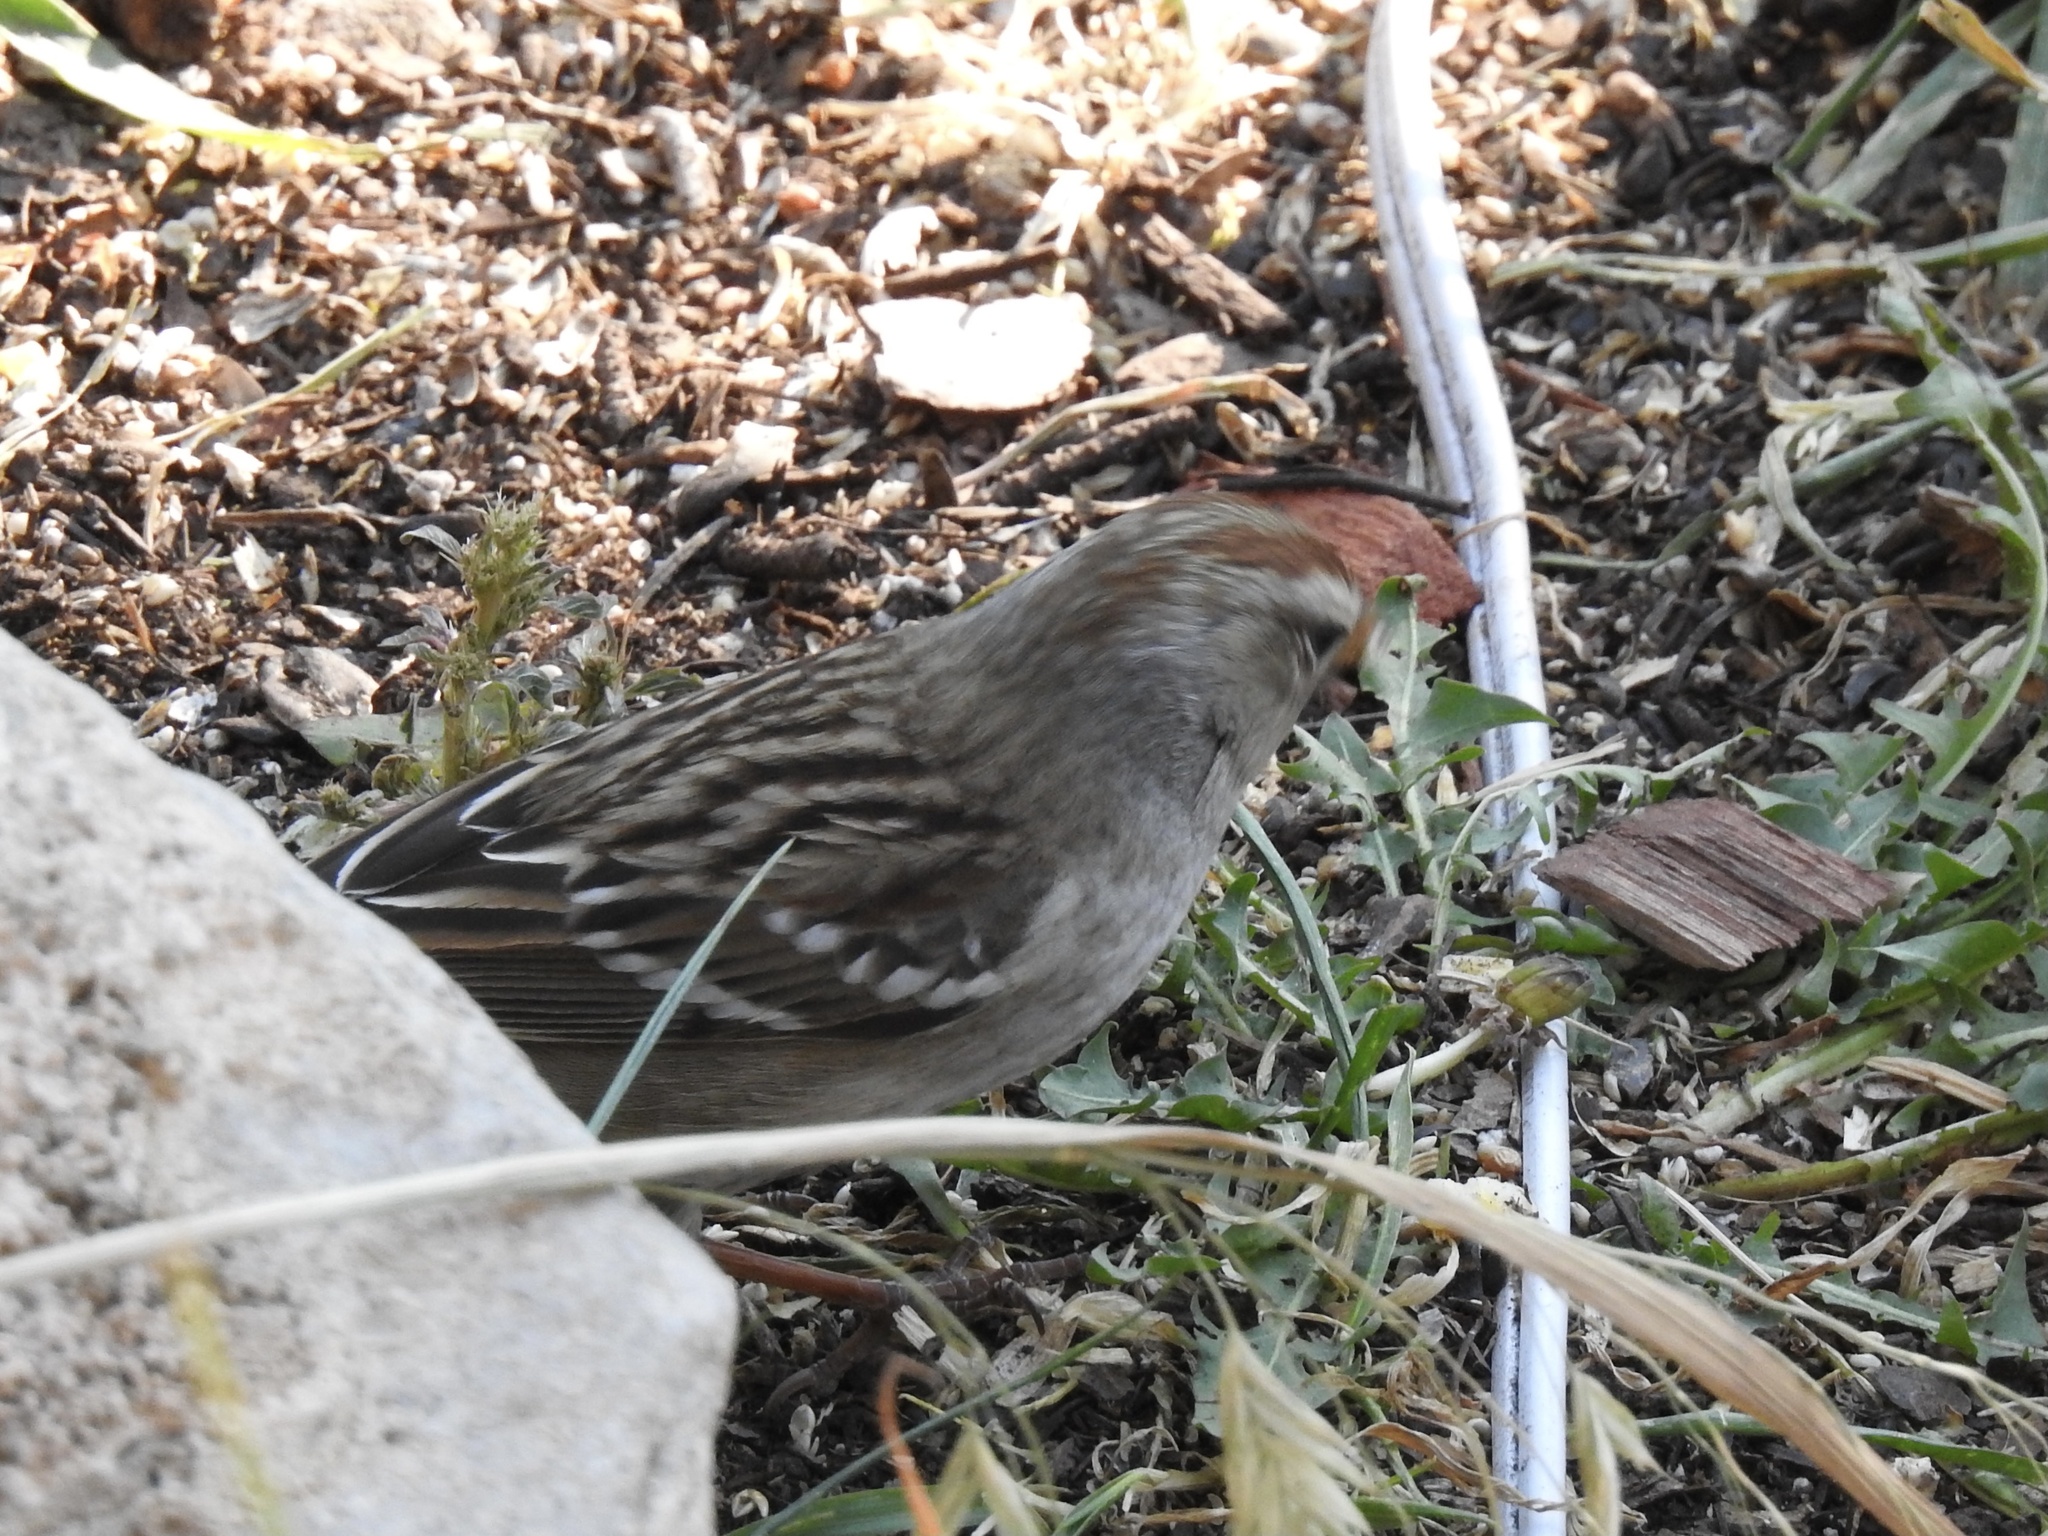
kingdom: Animalia
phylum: Chordata
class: Aves
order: Passeriformes
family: Passerellidae
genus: Zonotrichia
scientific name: Zonotrichia leucophrys
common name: White-crowned sparrow
